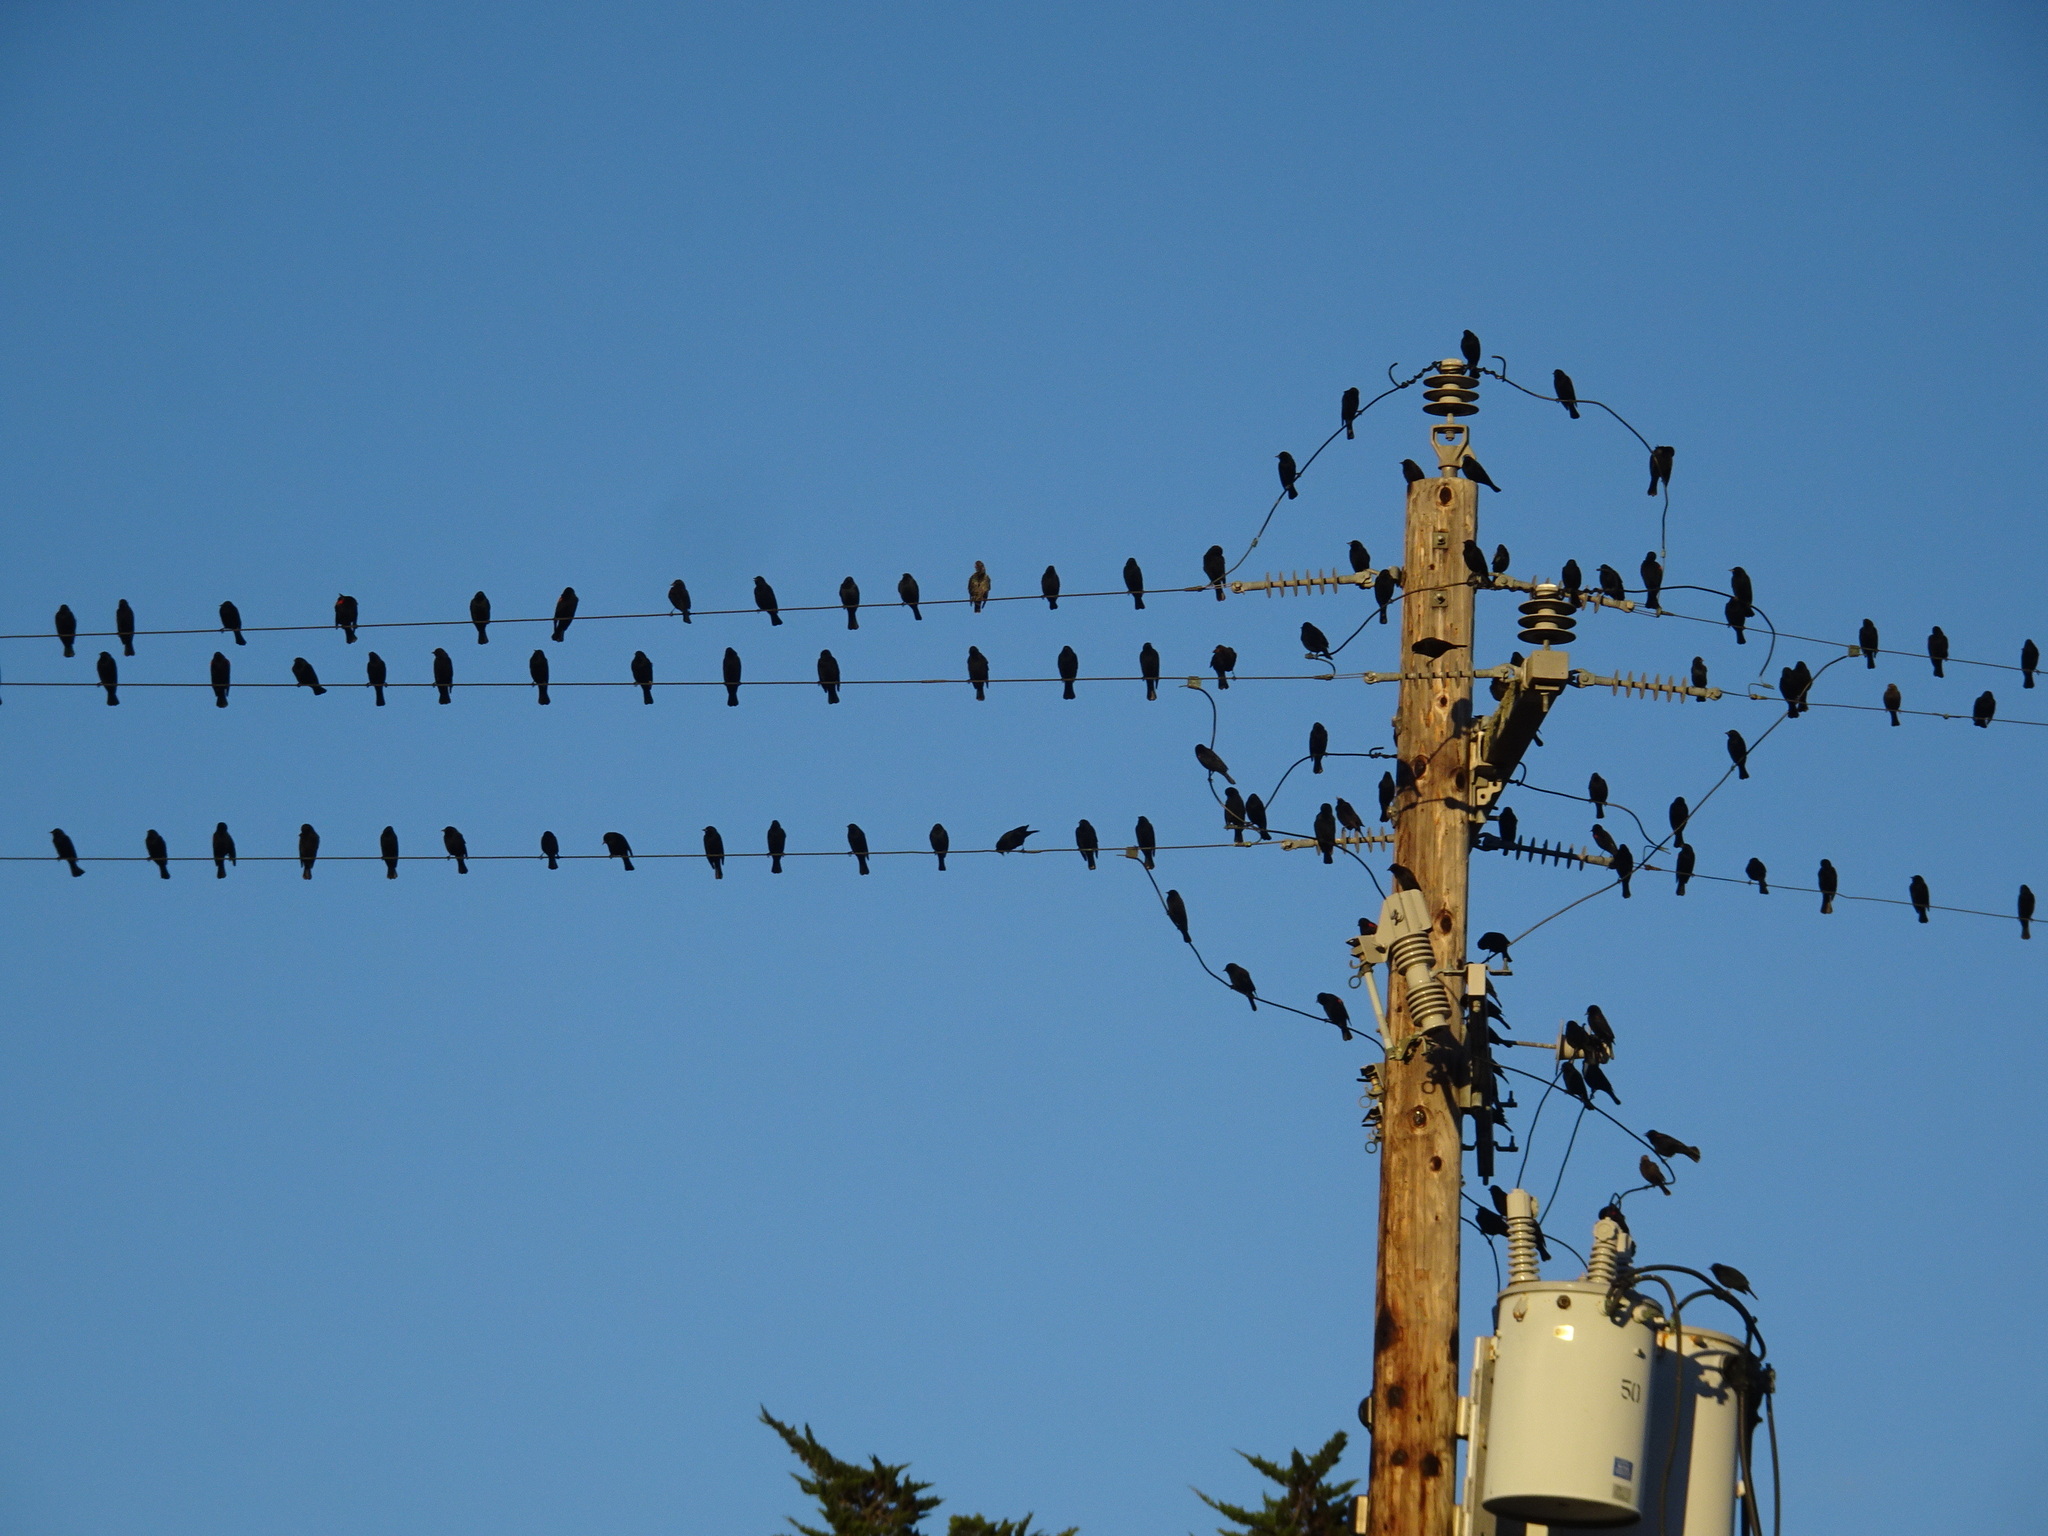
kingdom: Animalia
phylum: Chordata
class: Aves
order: Passeriformes
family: Icteridae
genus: Euphagus
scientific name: Euphagus cyanocephalus
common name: Brewer's blackbird
